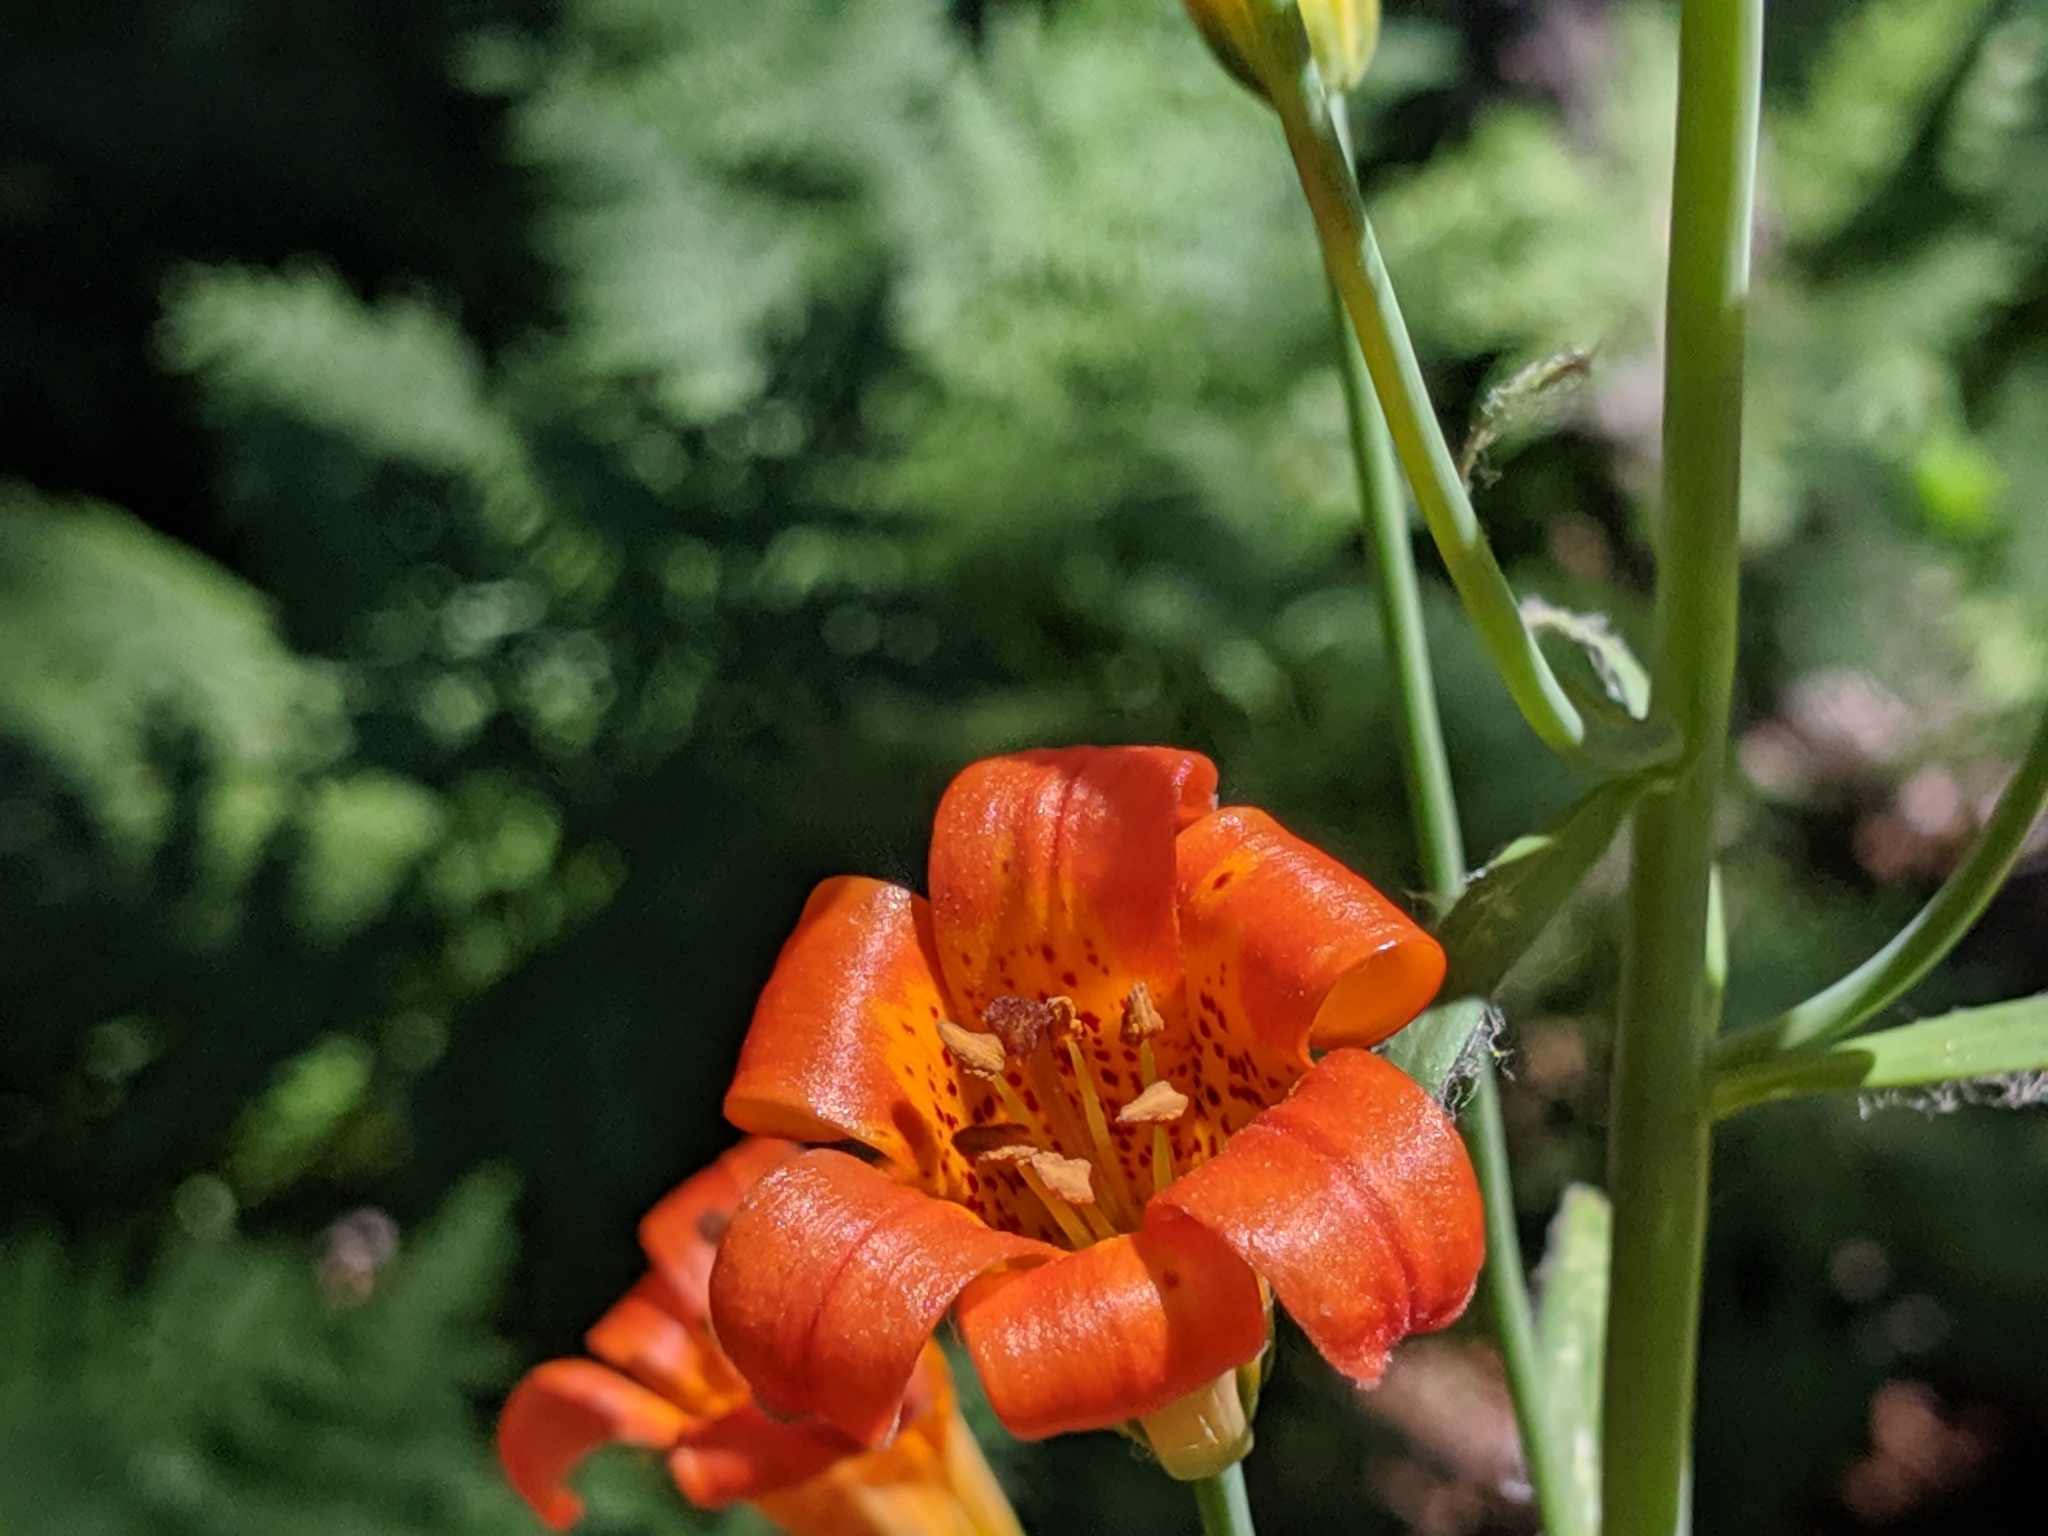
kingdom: Plantae
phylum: Tracheophyta
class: Liliopsida
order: Liliales
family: Liliaceae
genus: Lilium
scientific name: Lilium parvum
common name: Alpine lily
